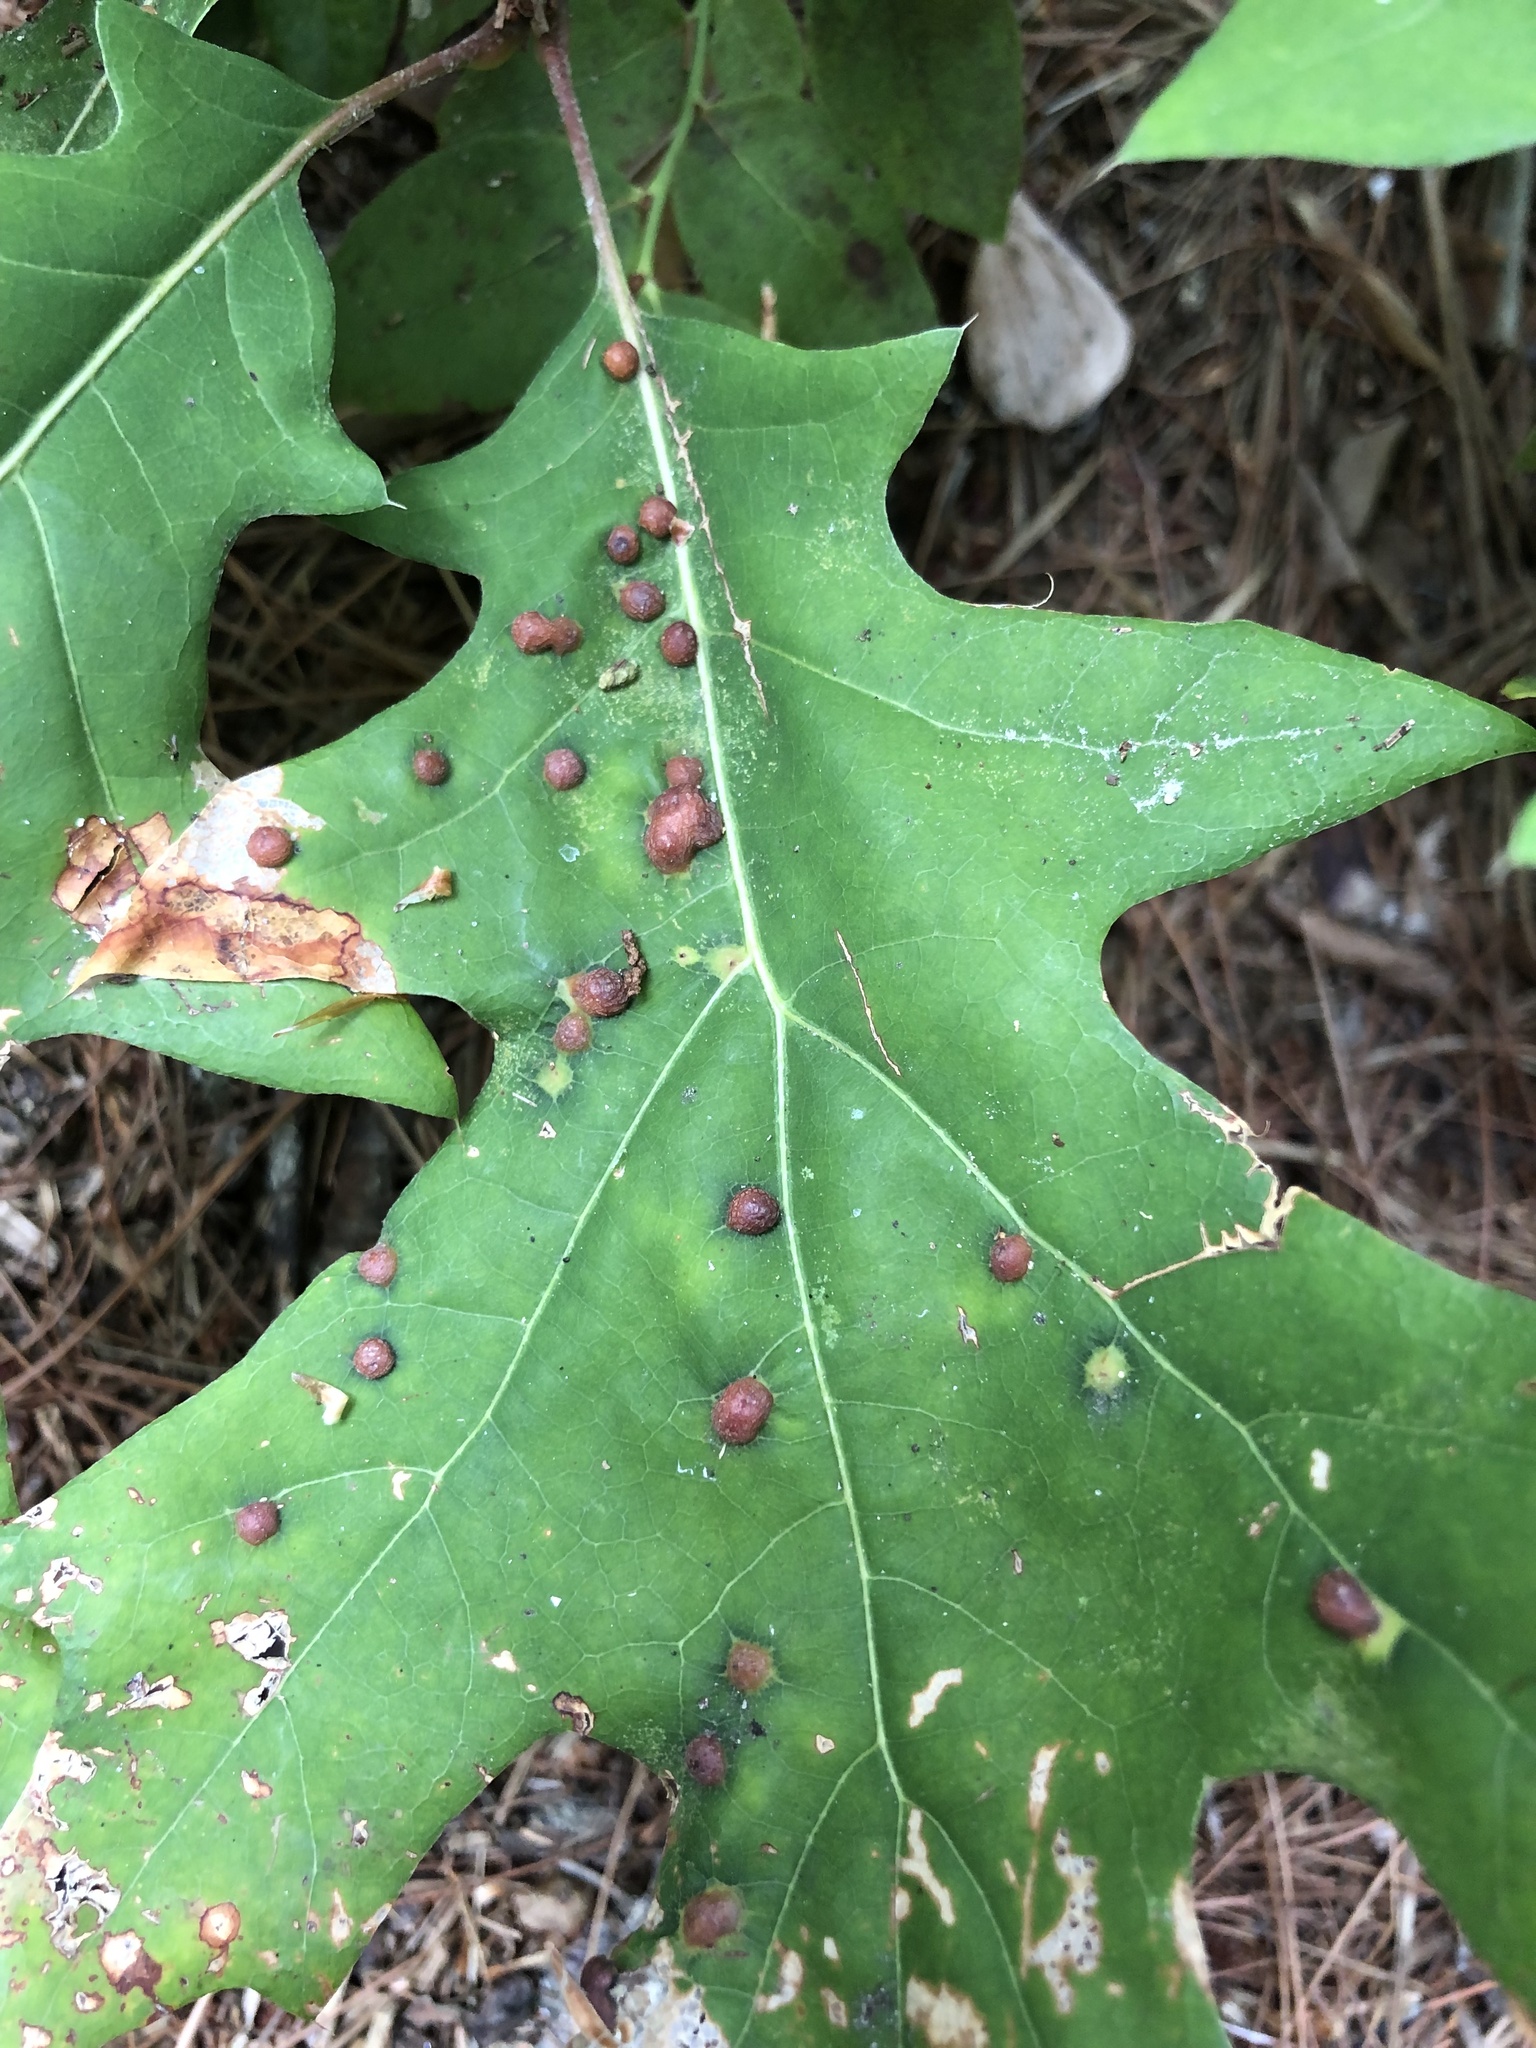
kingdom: Animalia
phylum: Arthropoda
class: Insecta
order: Diptera
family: Cecidomyiidae
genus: Polystepha
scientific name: Polystepha pilulae
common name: Oak leaf gall midge
